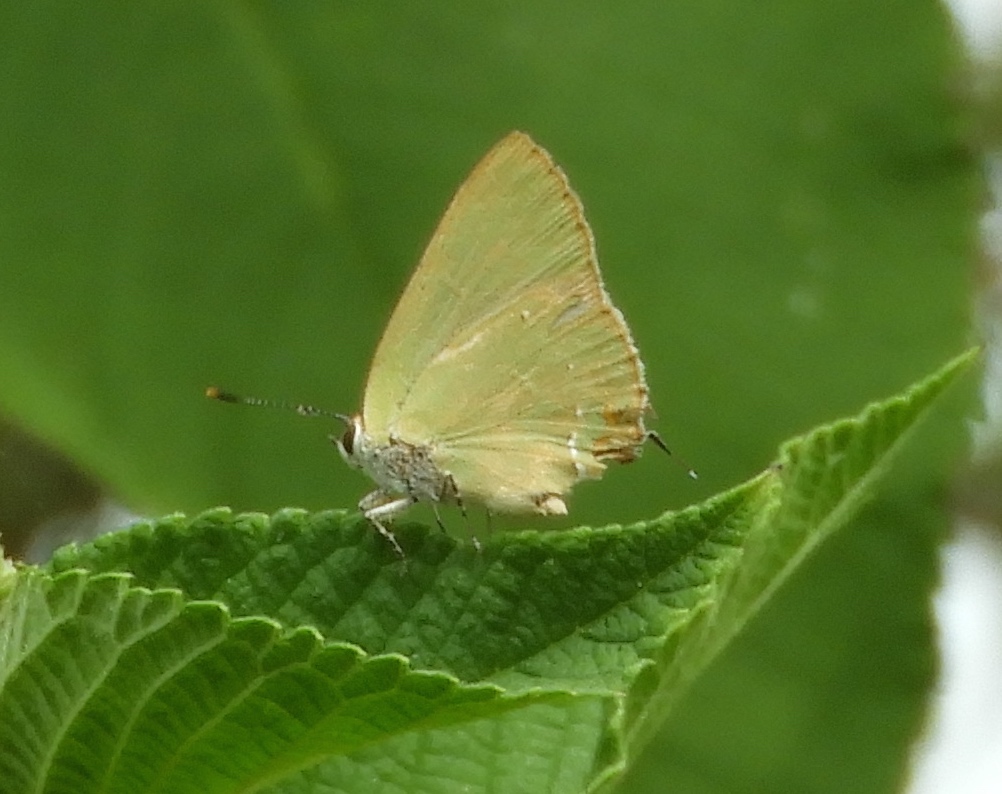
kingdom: Animalia
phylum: Arthropoda
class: Insecta
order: Lepidoptera
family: Lycaenidae
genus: Cyanophrys
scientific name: Cyanophrys
